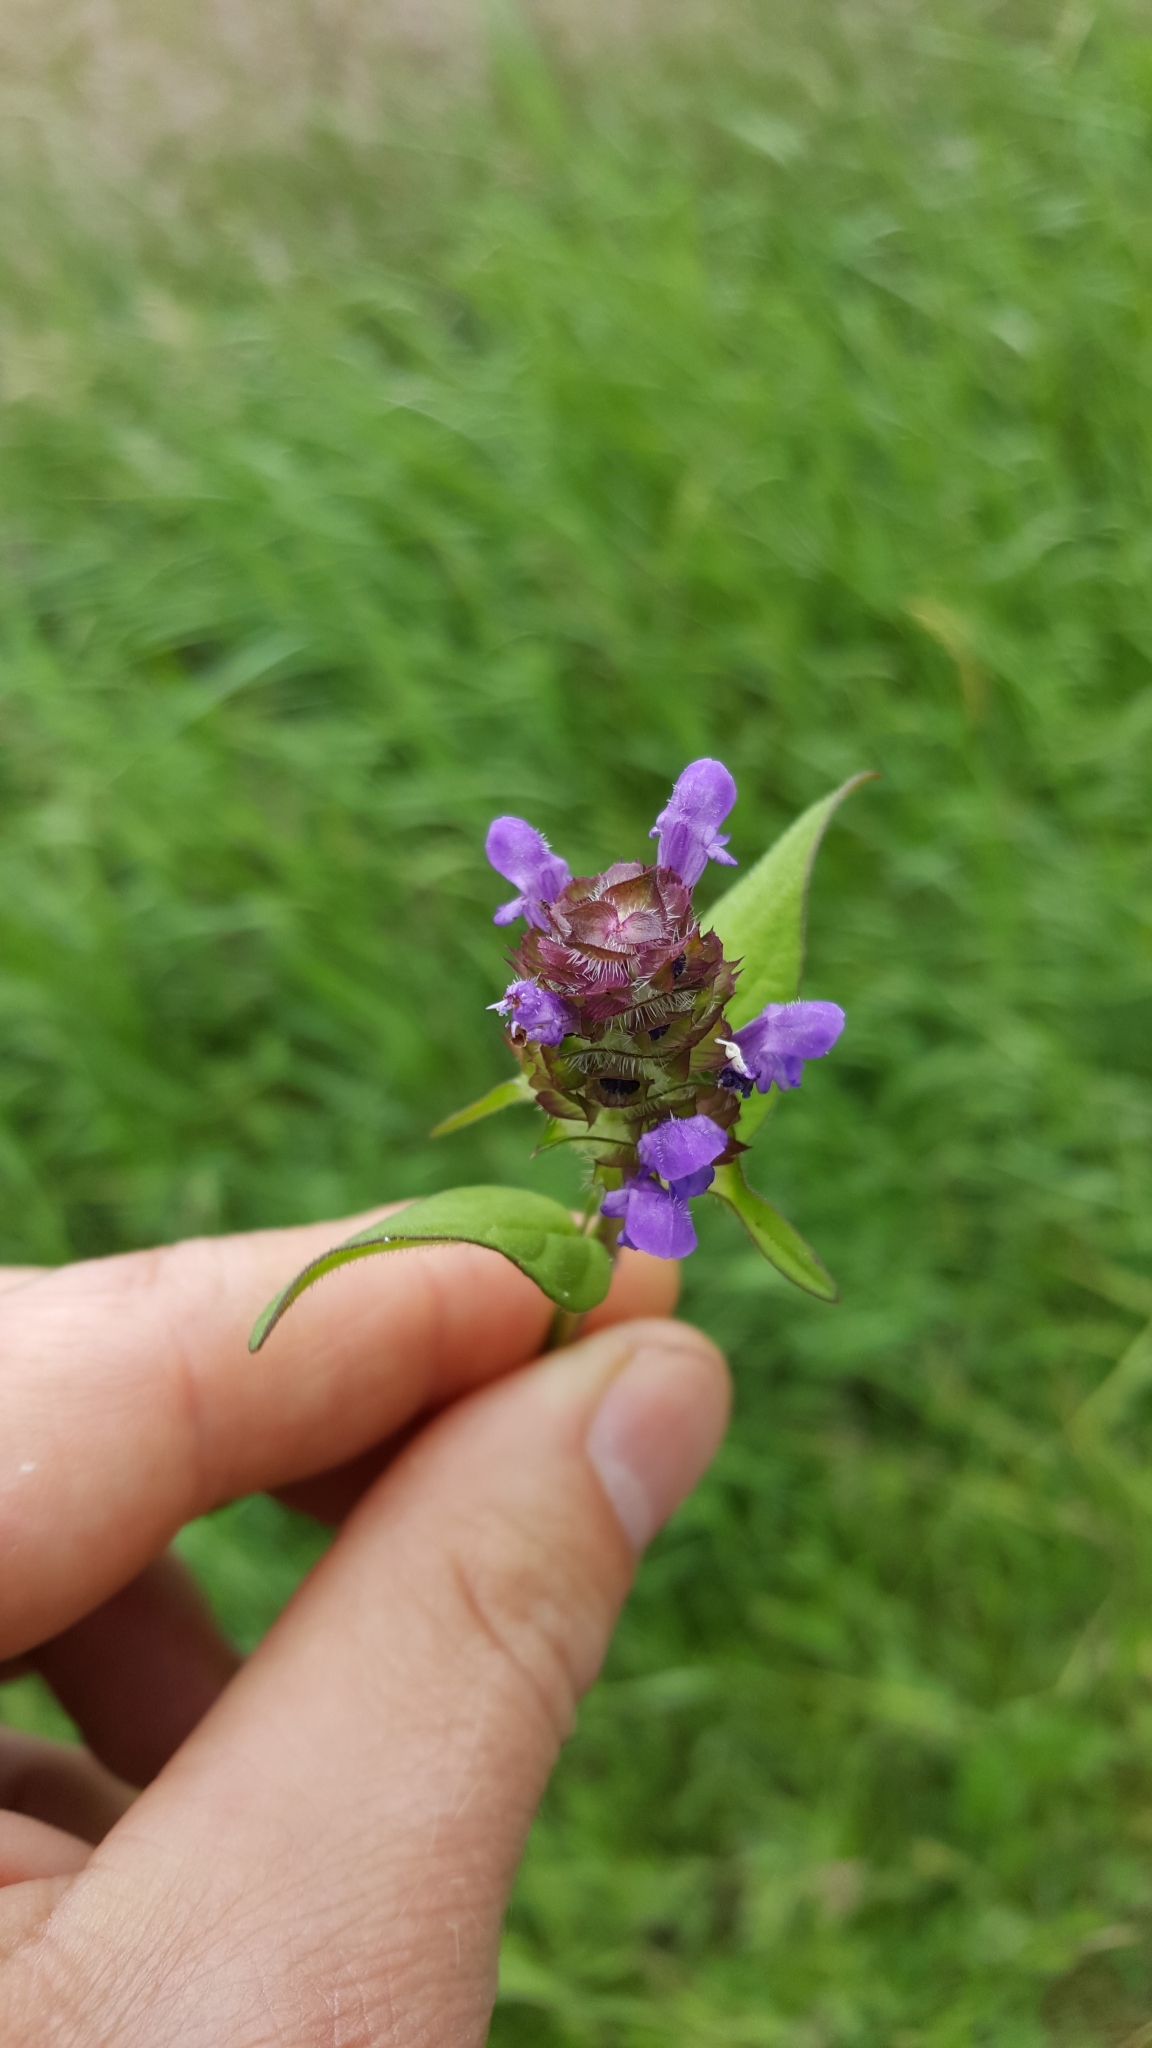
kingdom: Plantae
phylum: Tracheophyta
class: Magnoliopsida
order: Lamiales
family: Lamiaceae
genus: Prunella
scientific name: Prunella vulgaris
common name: Heal-all
